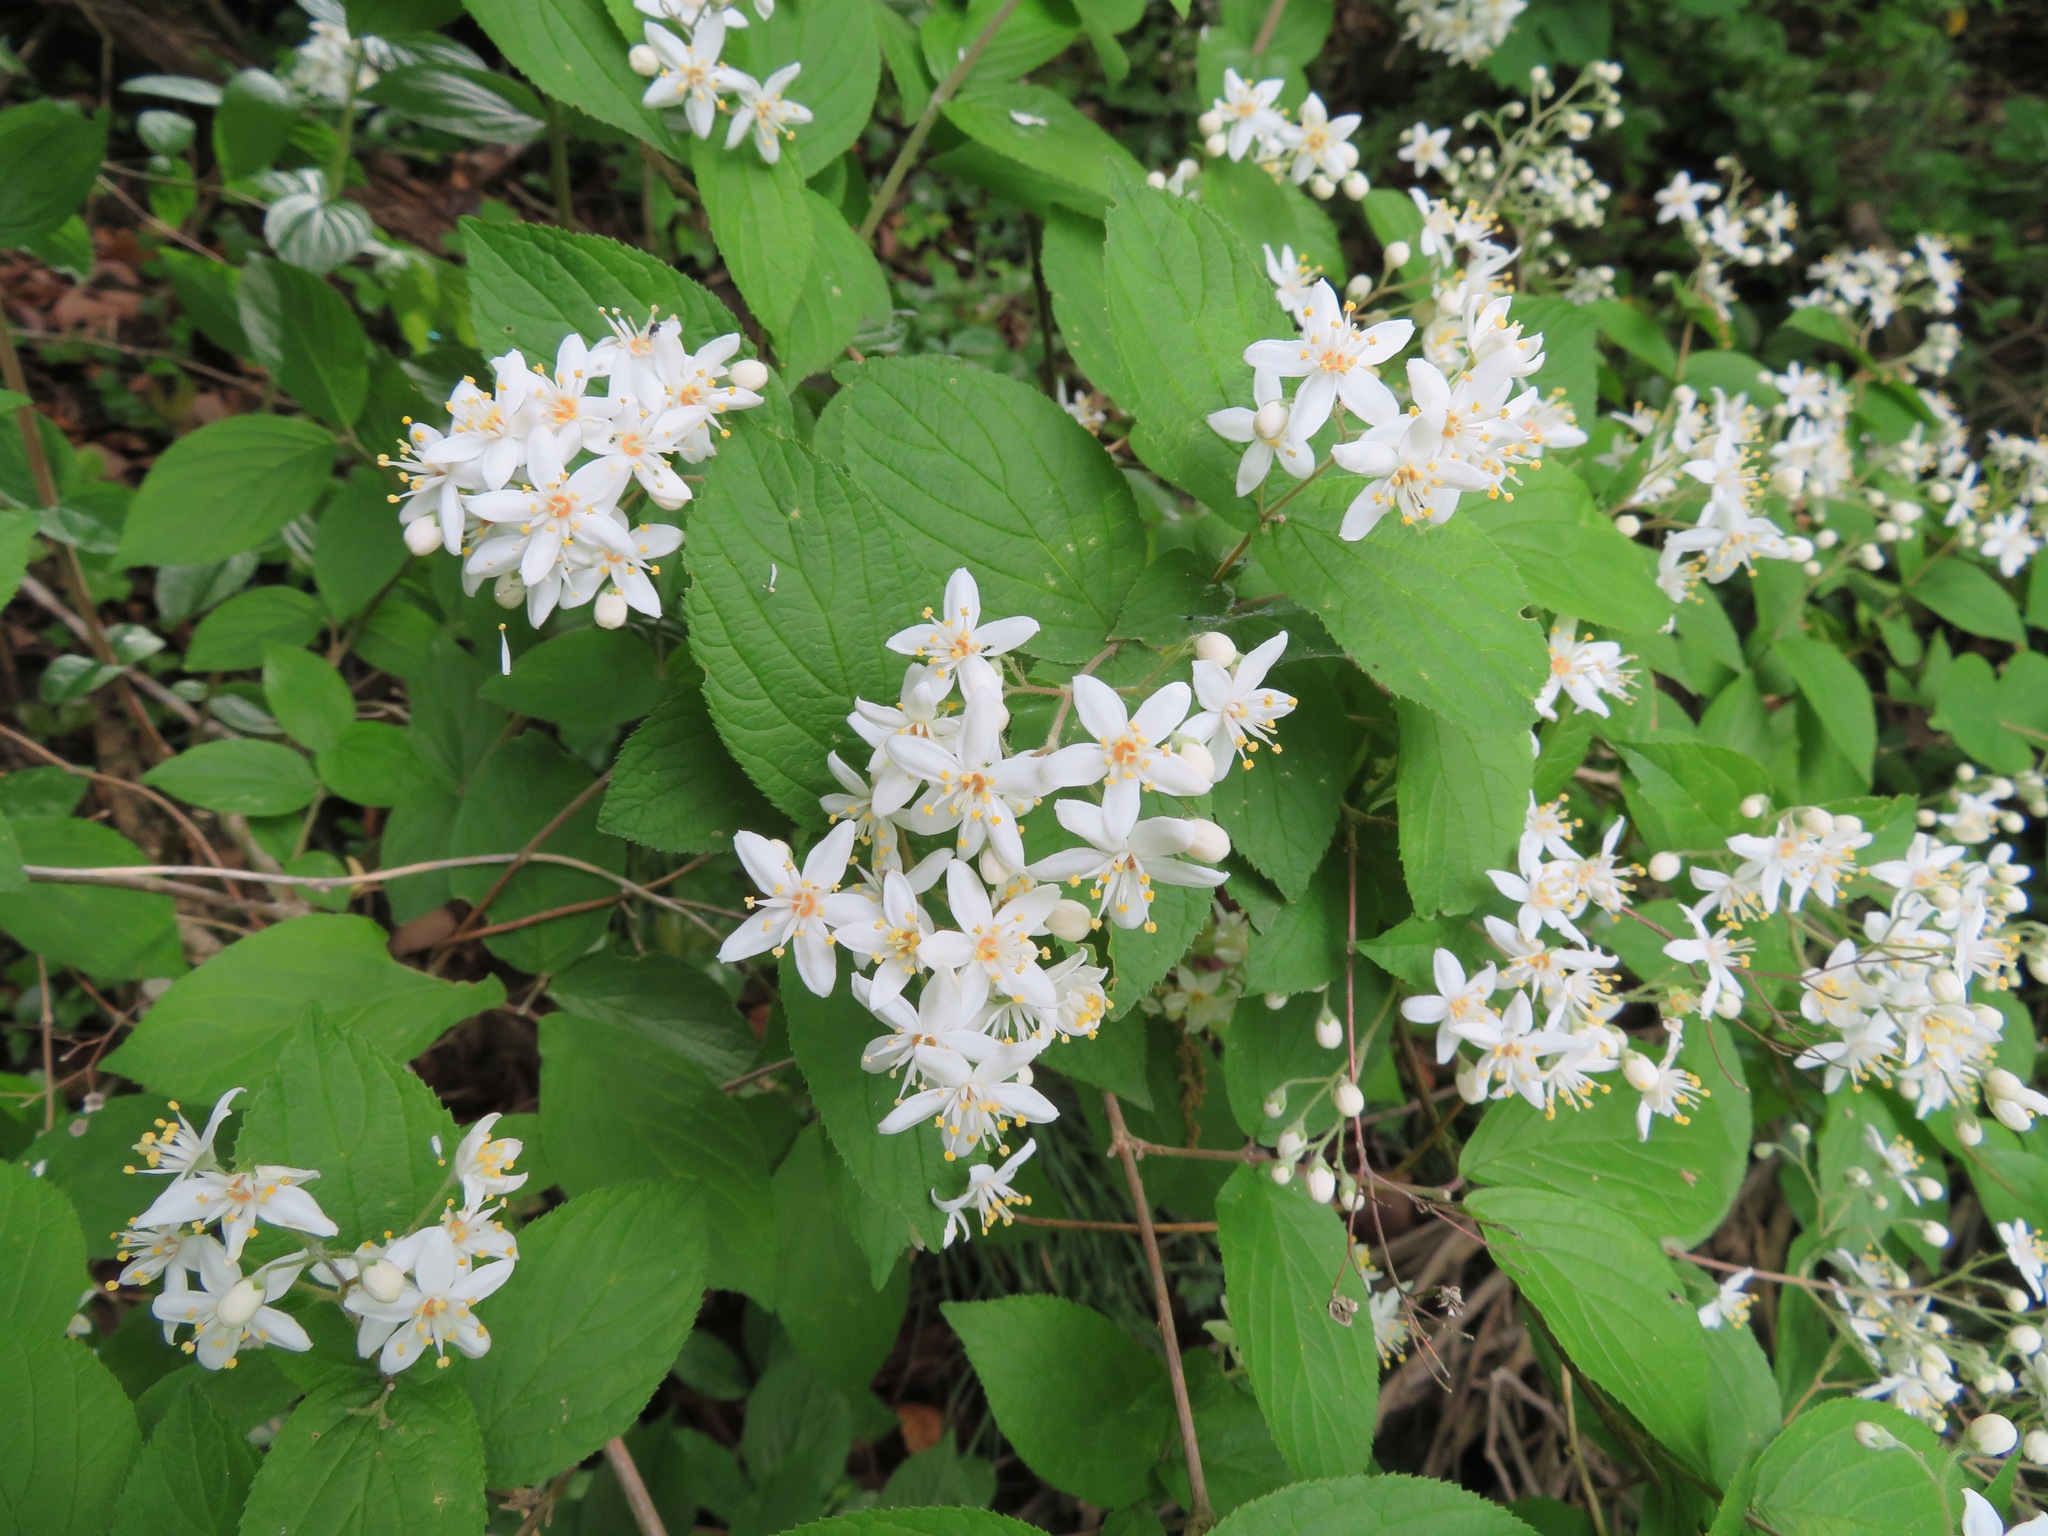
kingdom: Plantae
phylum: Tracheophyta
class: Magnoliopsida
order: Cornales
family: Hydrangeaceae
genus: Deutzia
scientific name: Deutzia scabra
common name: Deutzia
